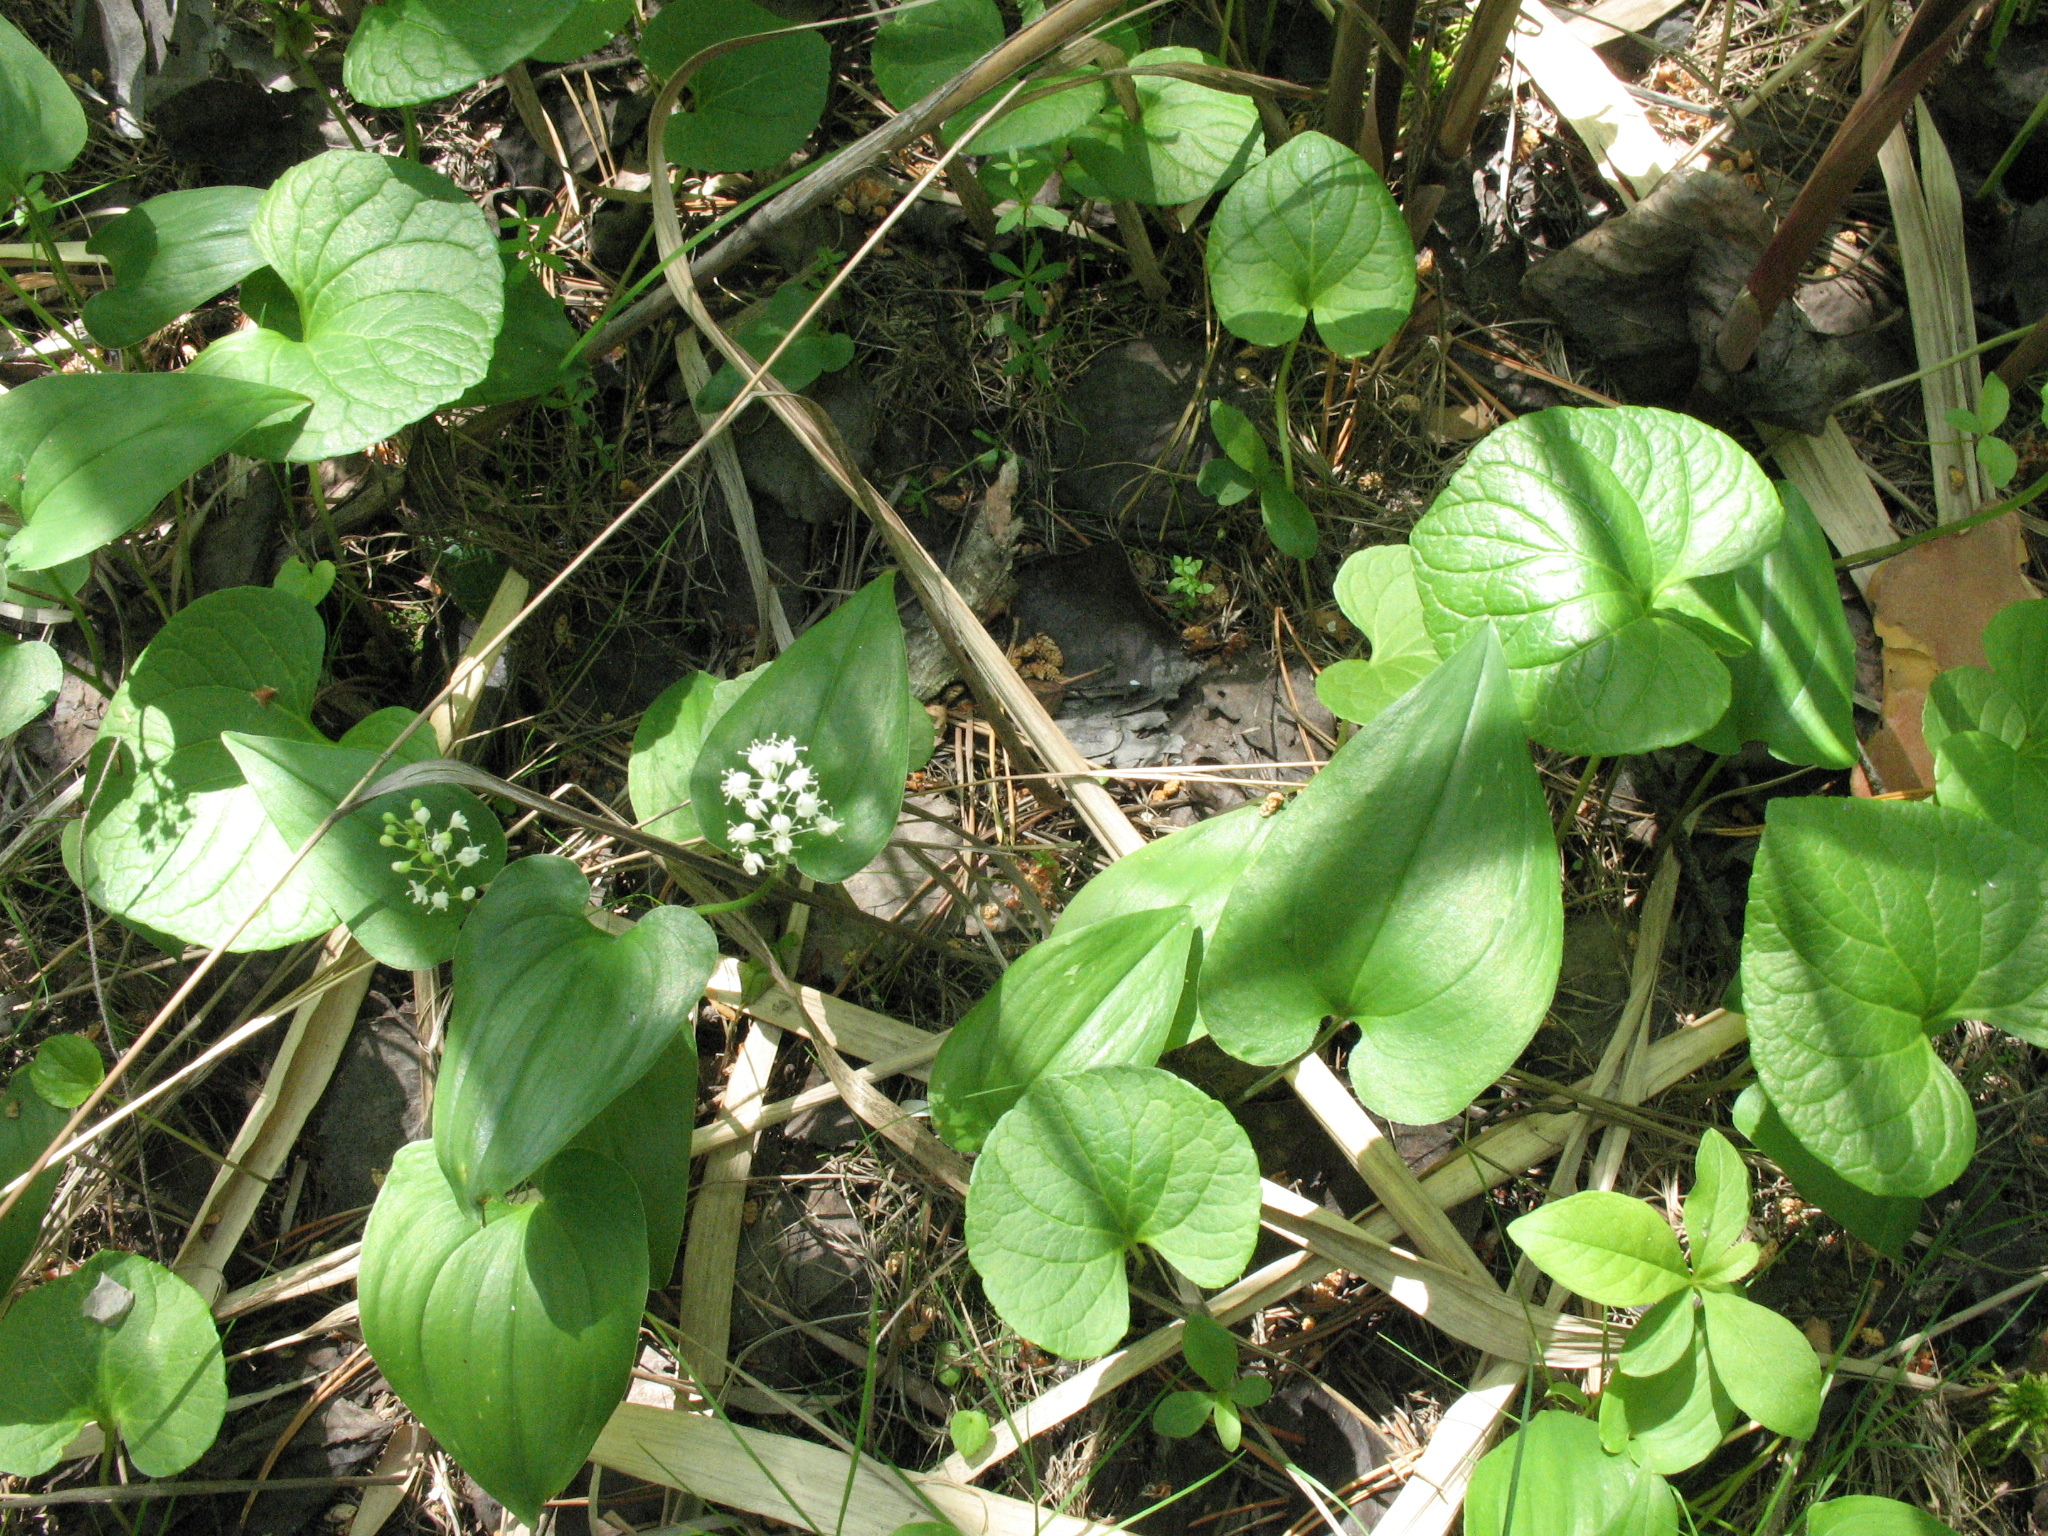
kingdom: Plantae
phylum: Tracheophyta
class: Liliopsida
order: Asparagales
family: Asparagaceae
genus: Maianthemum
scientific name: Maianthemum bifolium
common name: May lily
